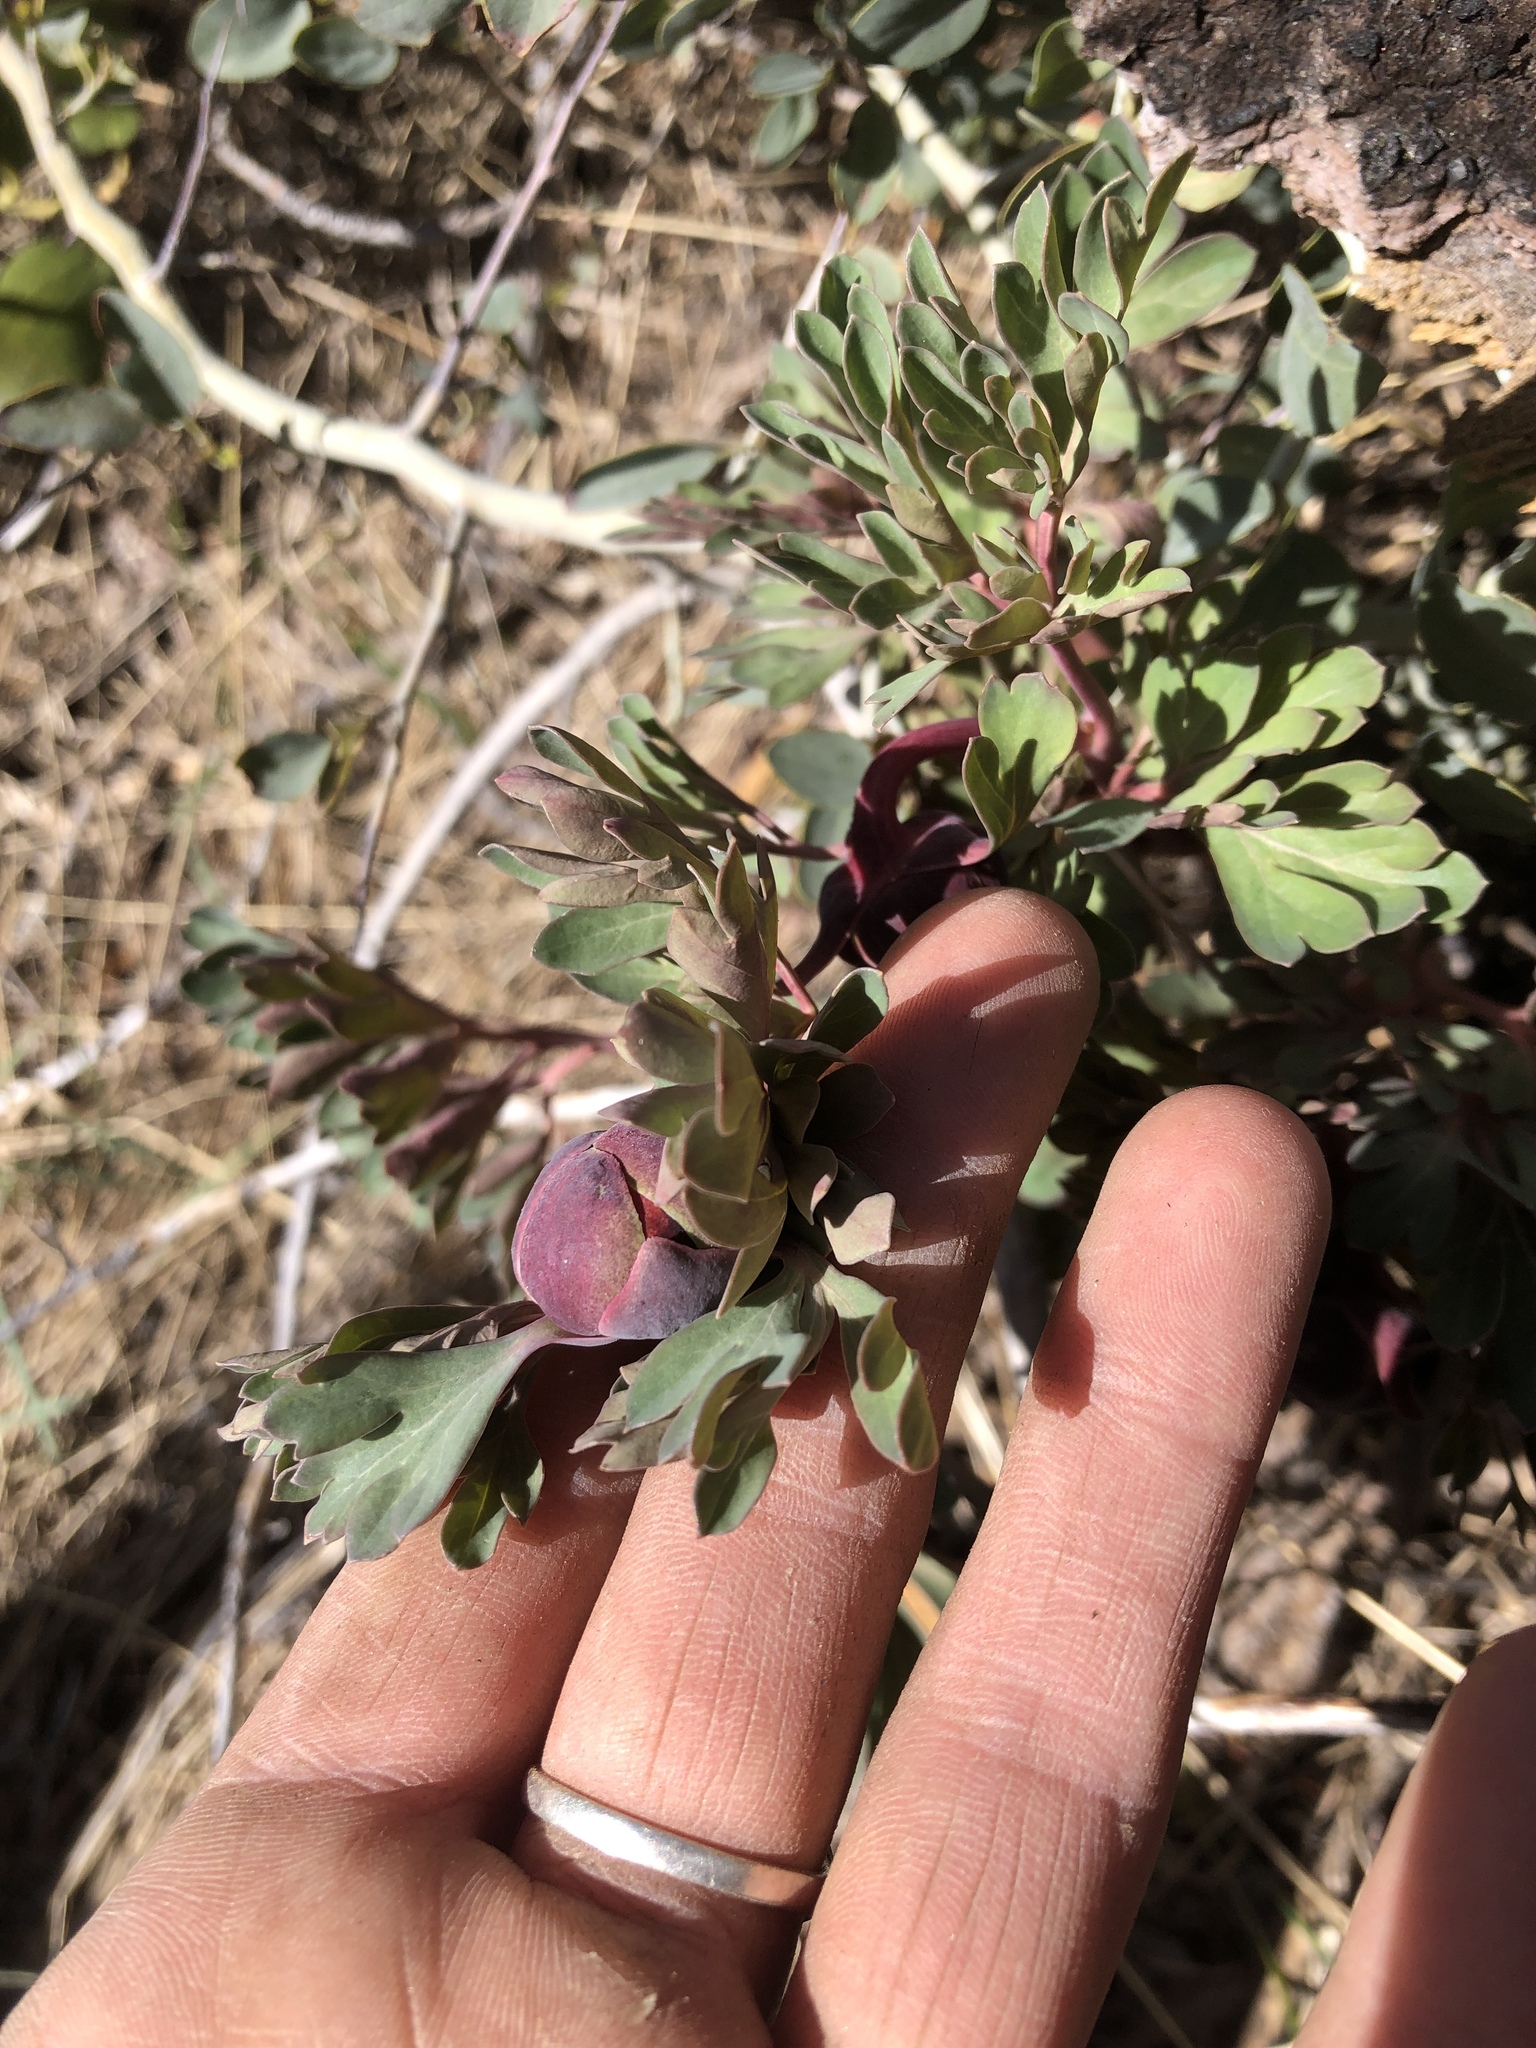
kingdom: Plantae
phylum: Tracheophyta
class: Magnoliopsida
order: Saxifragales
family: Paeoniaceae
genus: Paeonia
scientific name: Paeonia brownii
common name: Brown's peony
